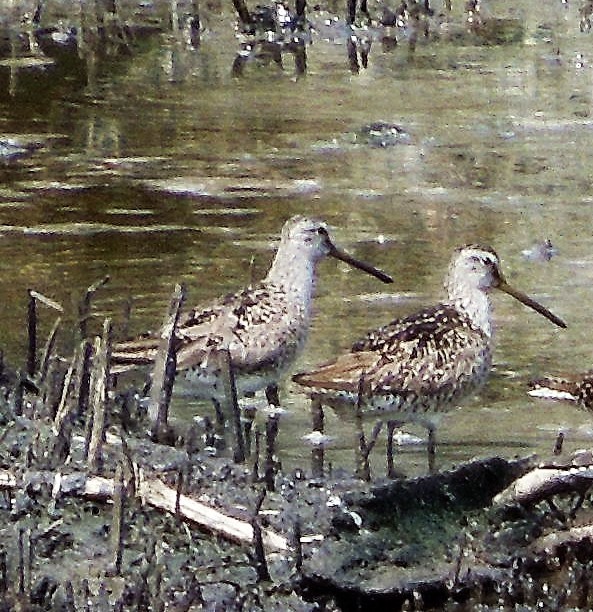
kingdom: Animalia
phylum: Chordata
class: Aves
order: Charadriiformes
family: Scolopacidae
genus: Limnodromus
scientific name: Limnodromus
